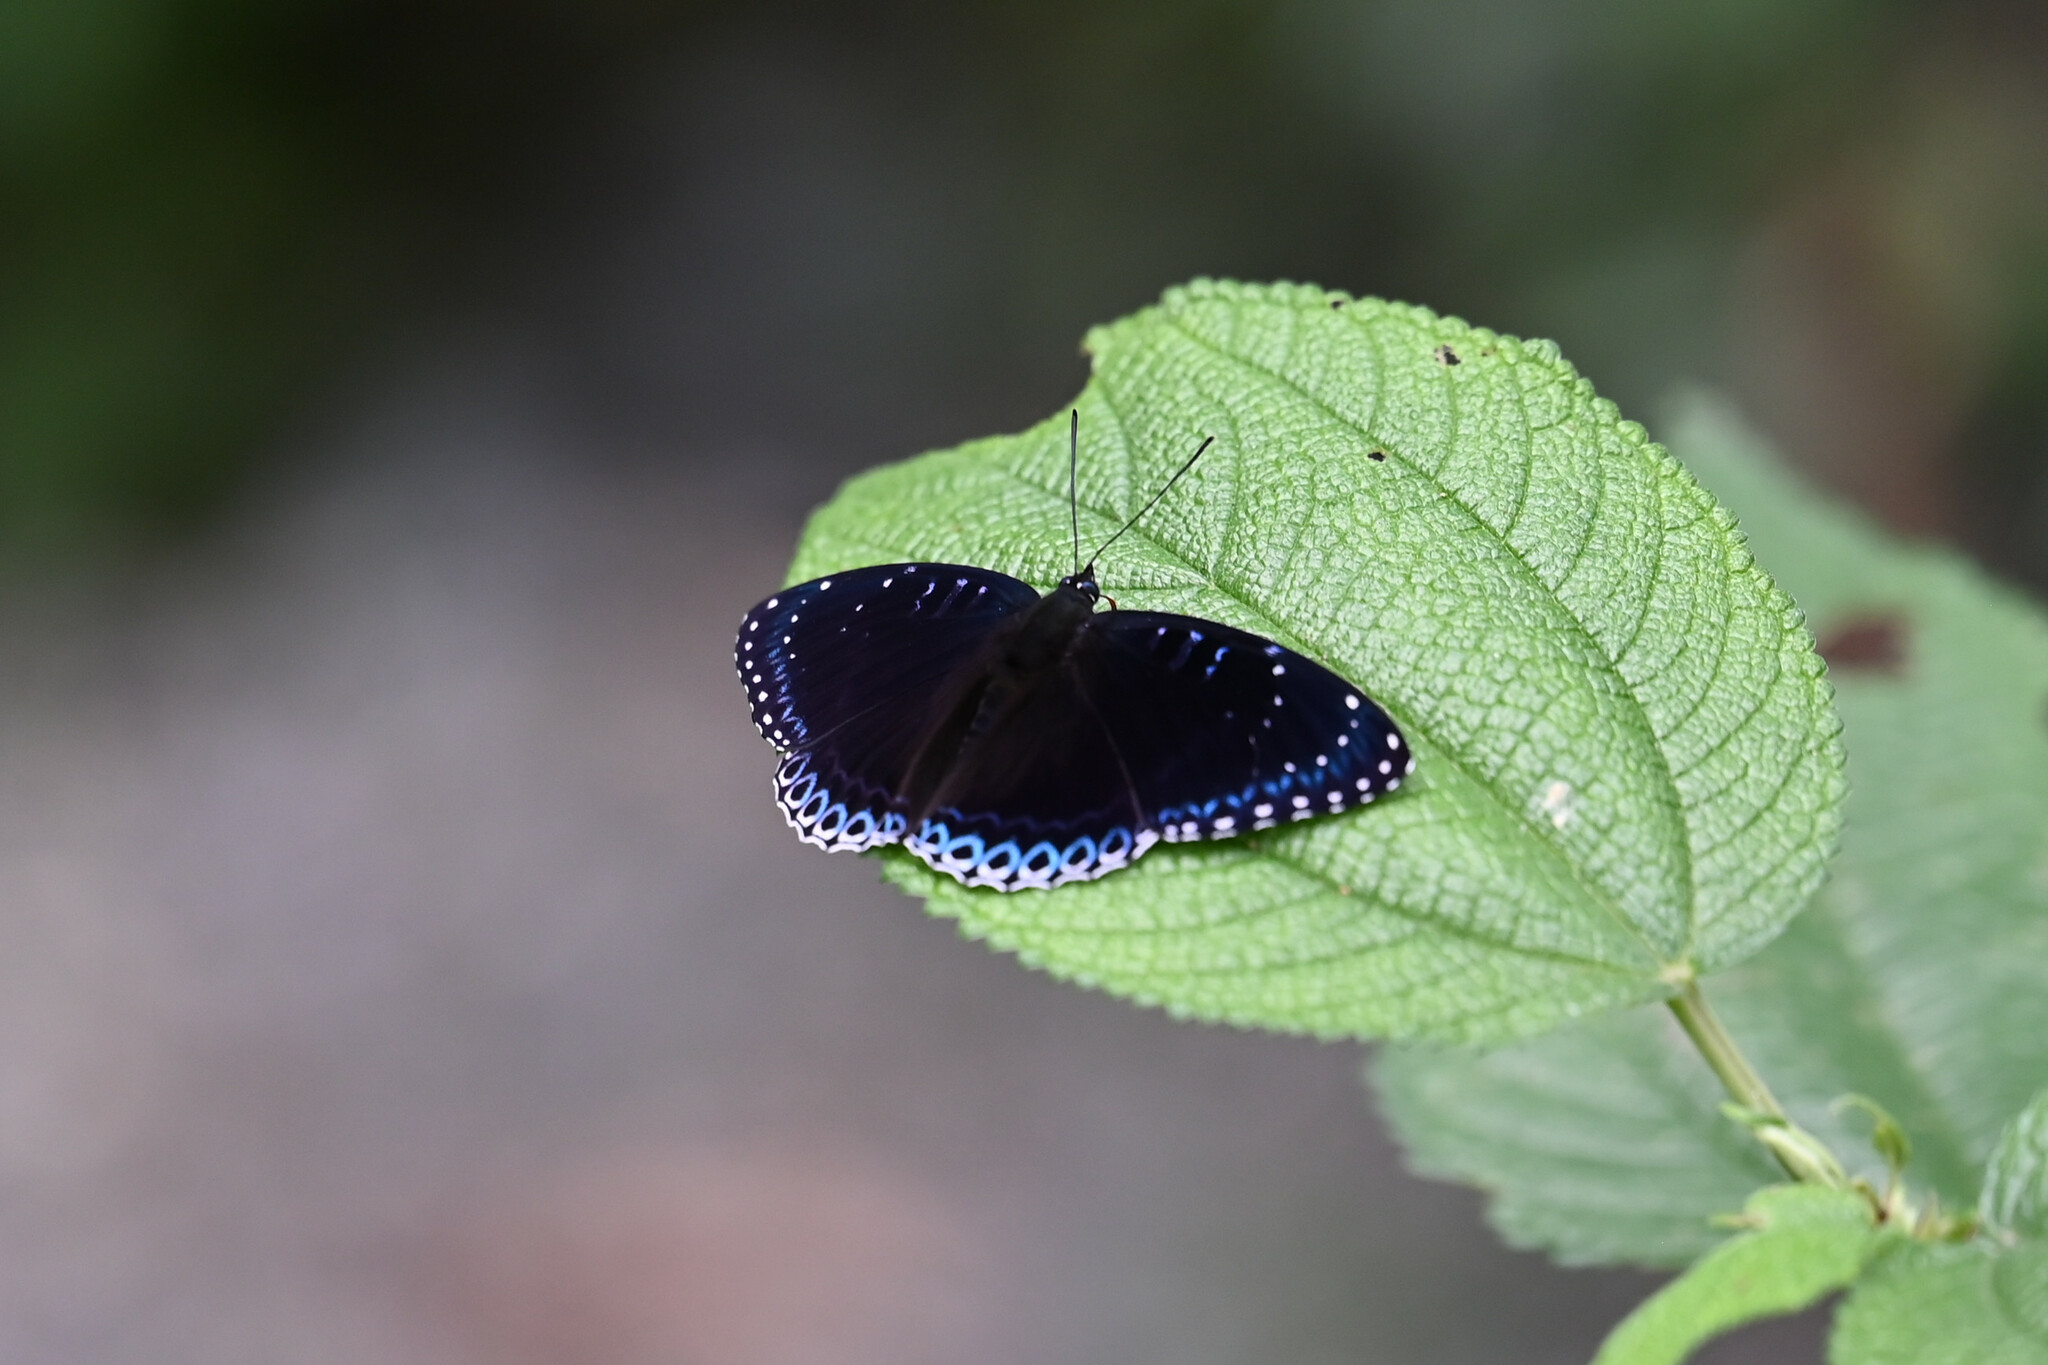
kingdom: Animalia
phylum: Arthropoda
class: Insecta
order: Lepidoptera
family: Nymphalidae
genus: Stibochiona
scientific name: Stibochiona nicea
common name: Popinjay
